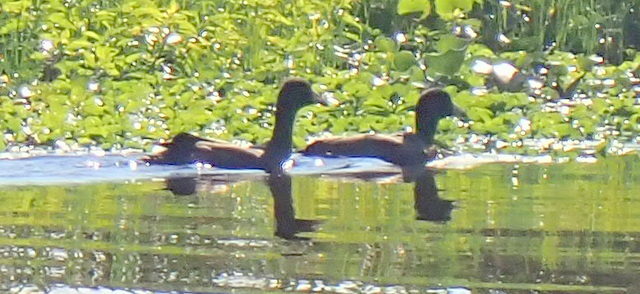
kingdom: Animalia
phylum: Chordata
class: Aves
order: Gruiformes
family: Rallidae
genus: Fulica
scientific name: Fulica americana
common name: American coot
